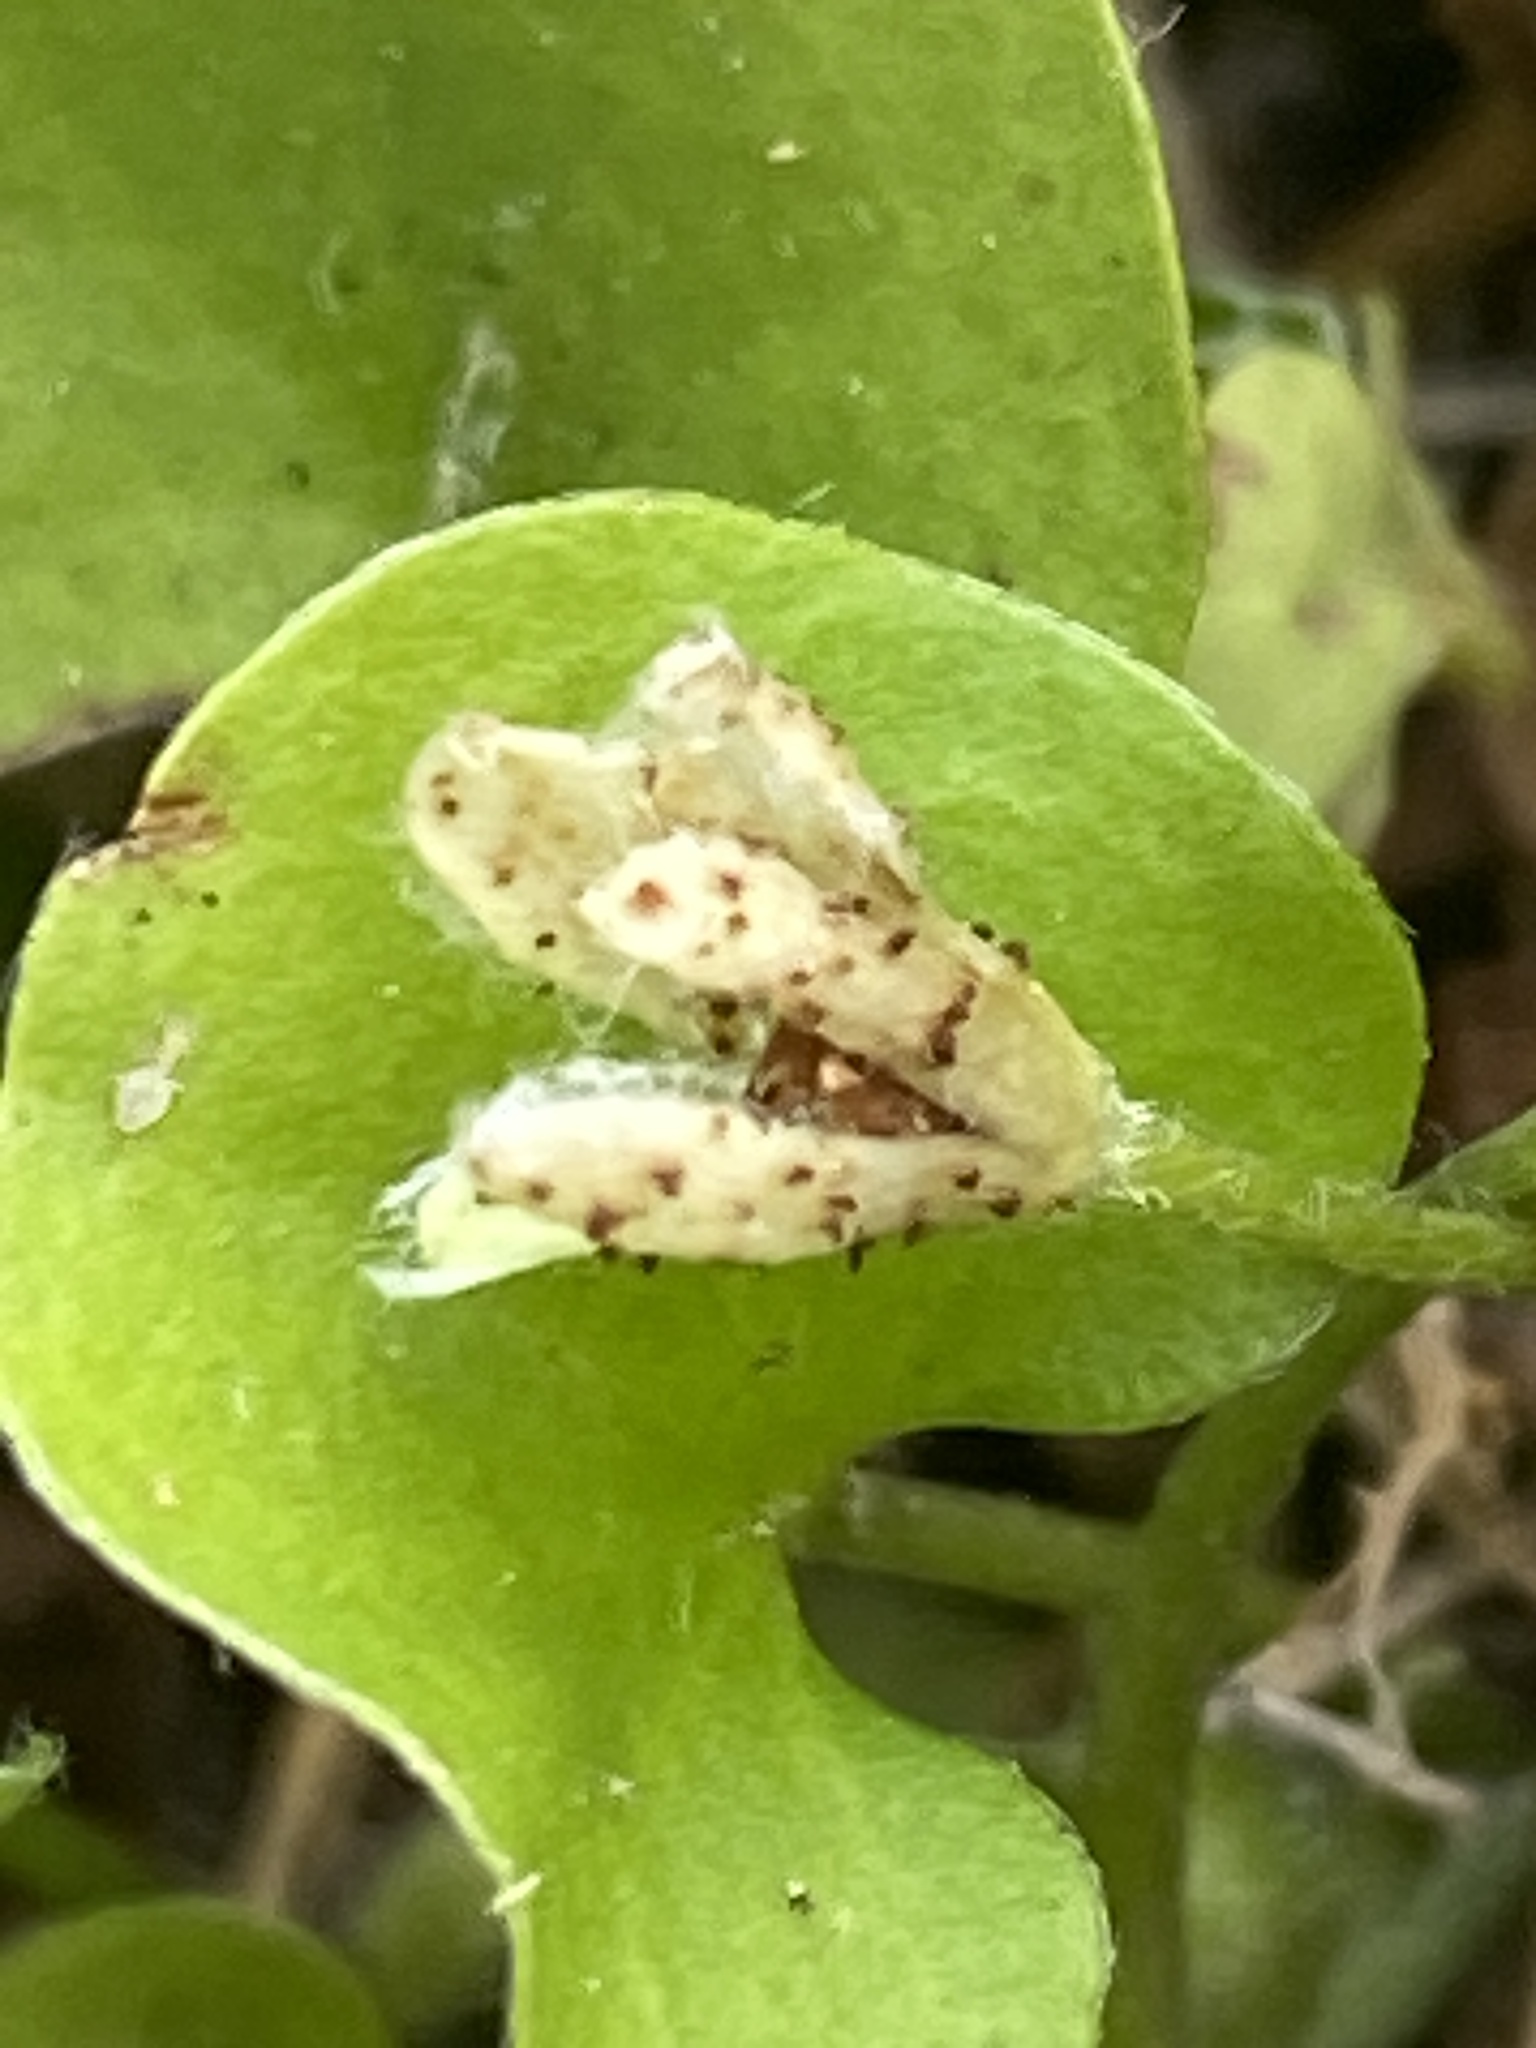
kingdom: Plantae
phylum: Tracheophyta
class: Magnoliopsida
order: Solanales
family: Convolvulaceae
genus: Dichondra
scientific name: Dichondra carolinensis
